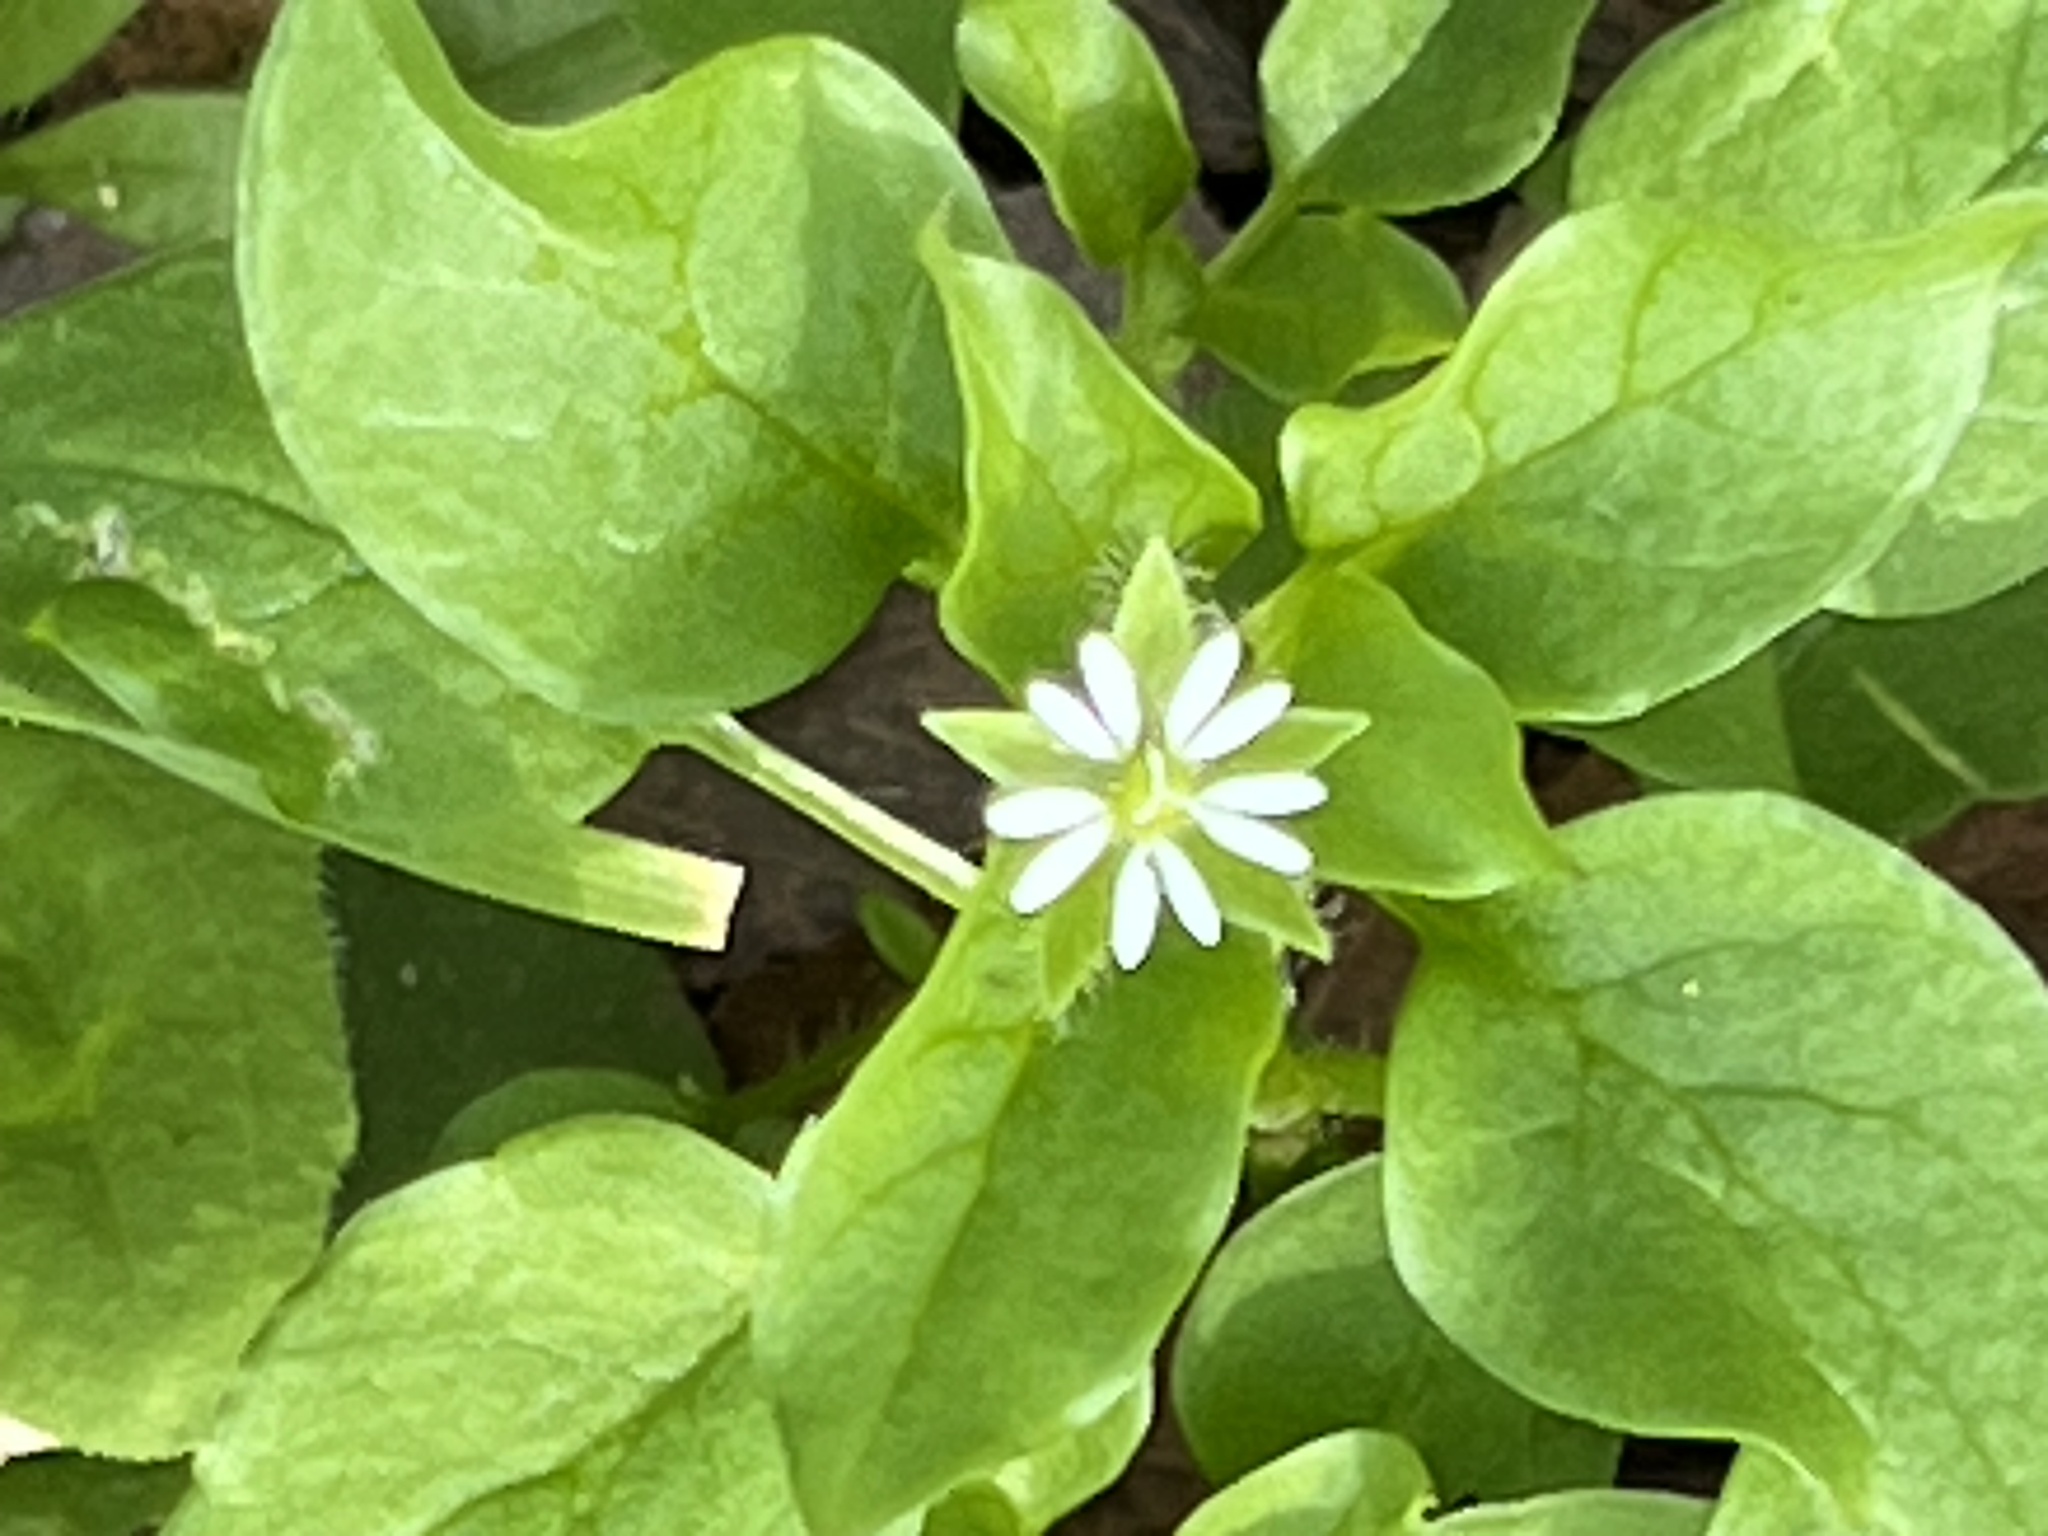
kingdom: Plantae
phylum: Tracheophyta
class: Magnoliopsida
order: Caryophyllales
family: Caryophyllaceae
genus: Stellaria
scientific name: Stellaria media
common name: Common chickweed
